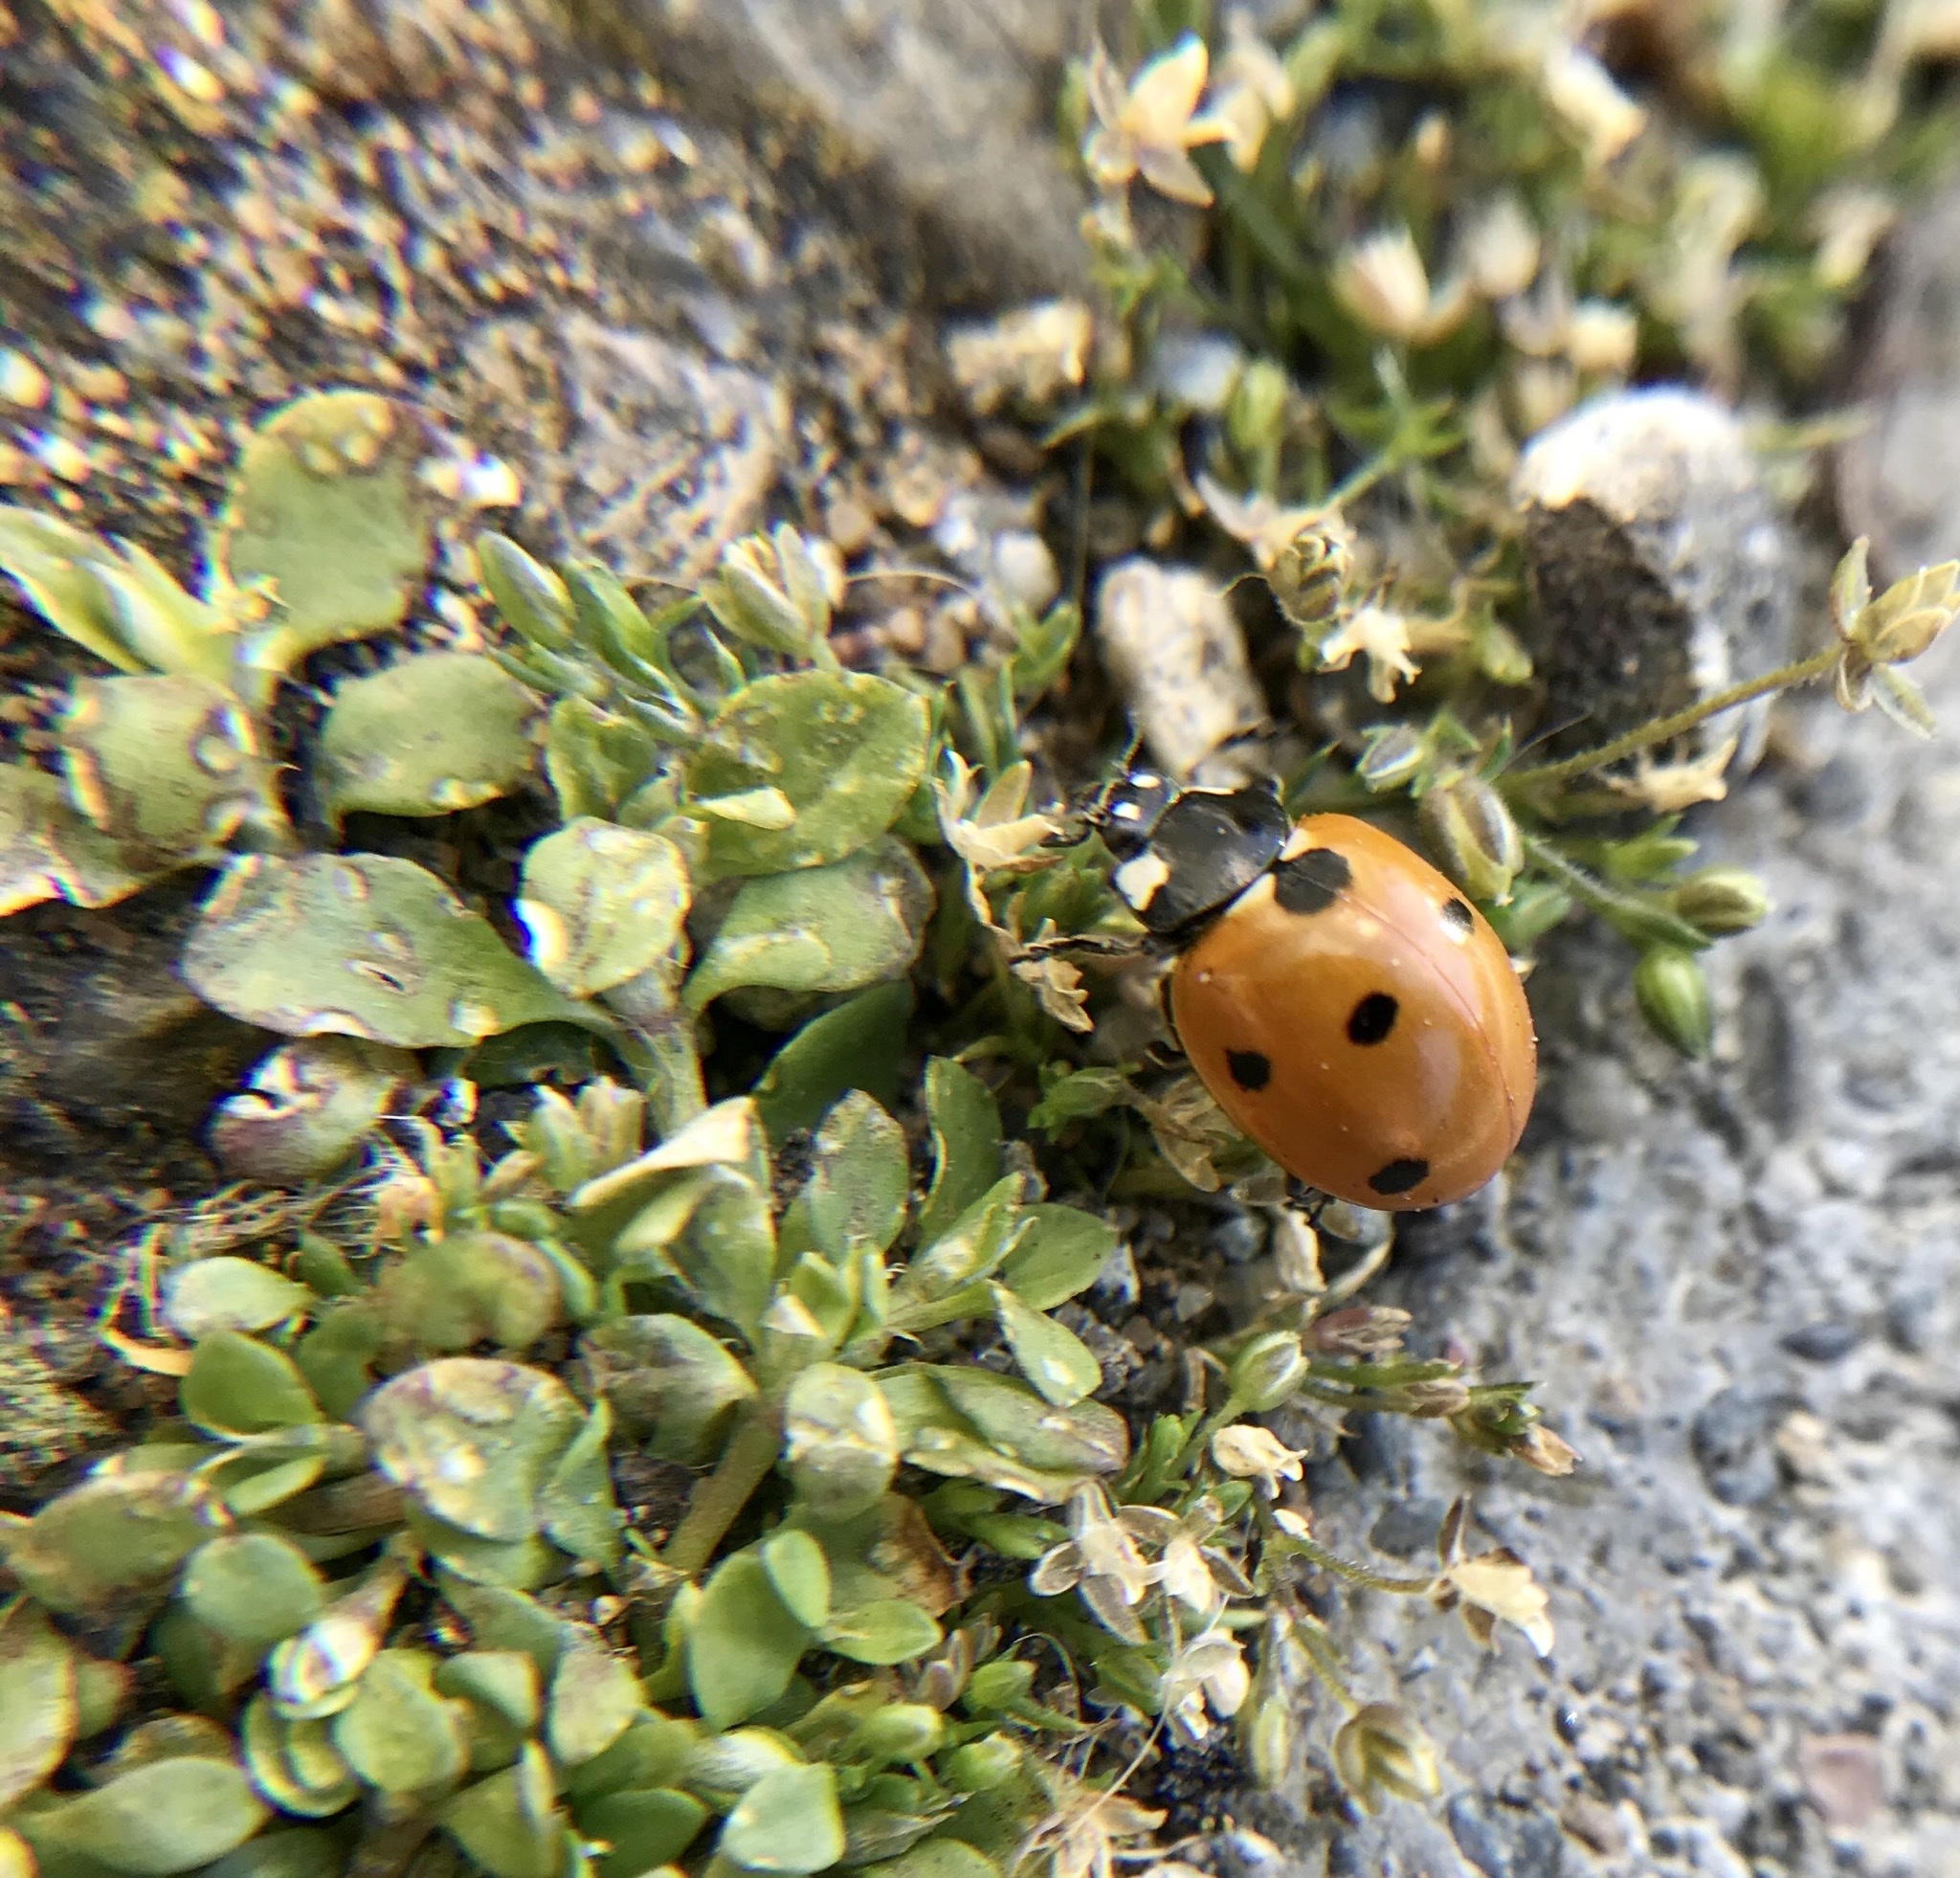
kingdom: Animalia
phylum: Arthropoda
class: Insecta
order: Coleoptera
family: Coccinellidae
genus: Coccinella
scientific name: Coccinella septempunctata
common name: Sevenspotted lady beetle
